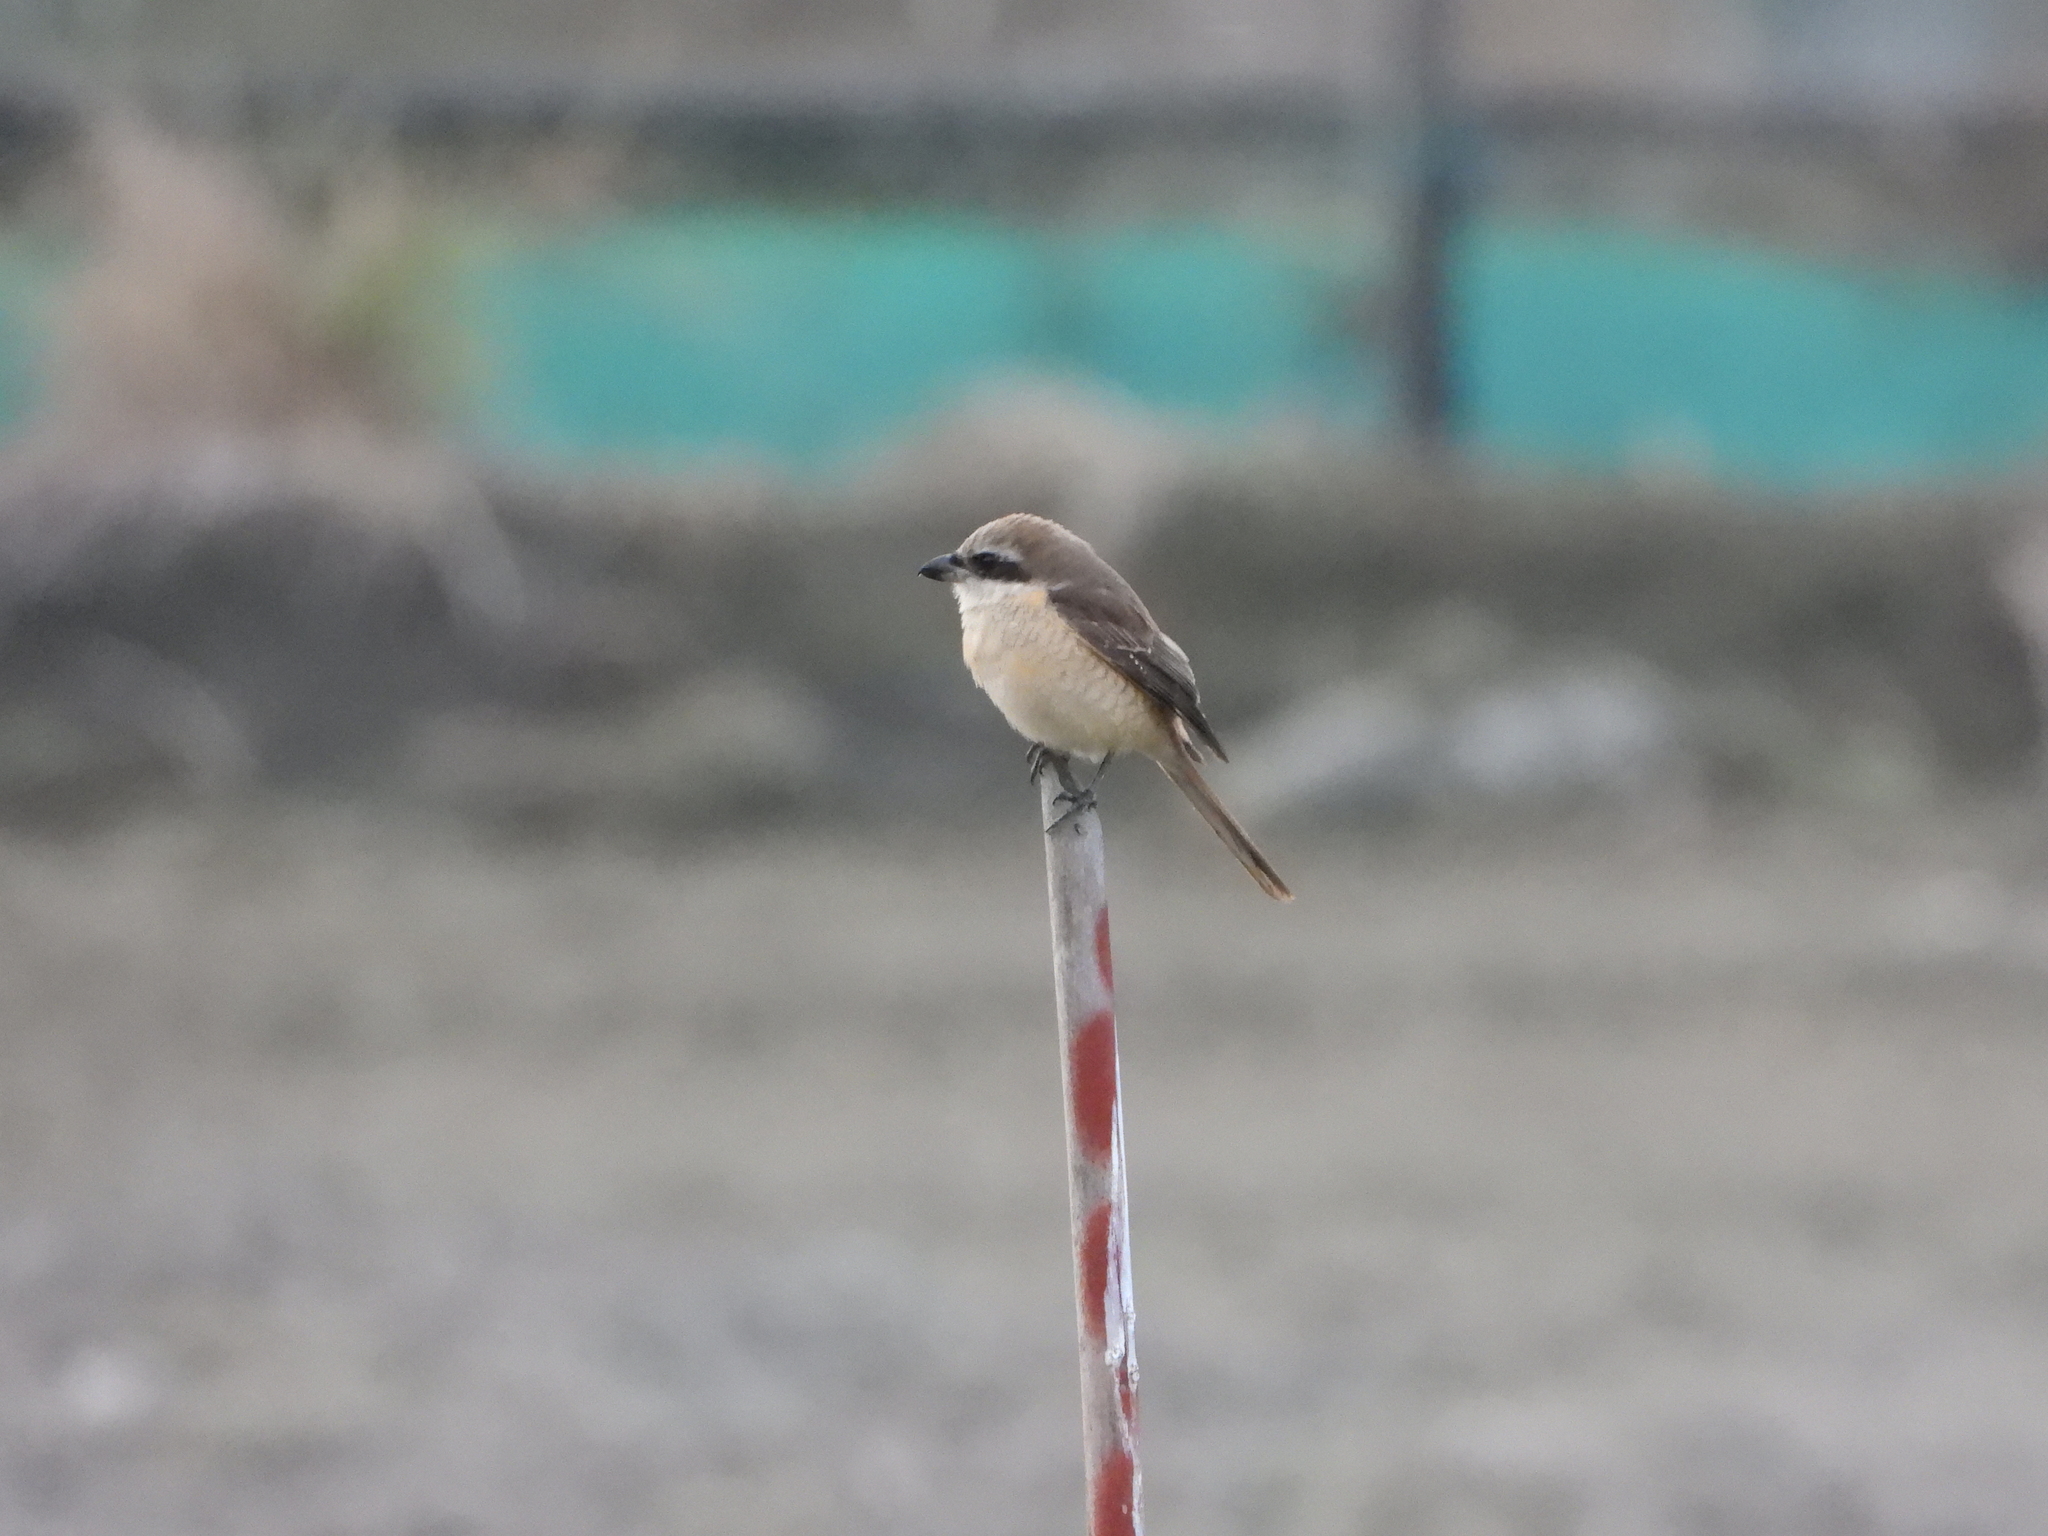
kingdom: Animalia
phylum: Chordata
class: Aves
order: Passeriformes
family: Laniidae
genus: Lanius
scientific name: Lanius cristatus
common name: Brown shrike
